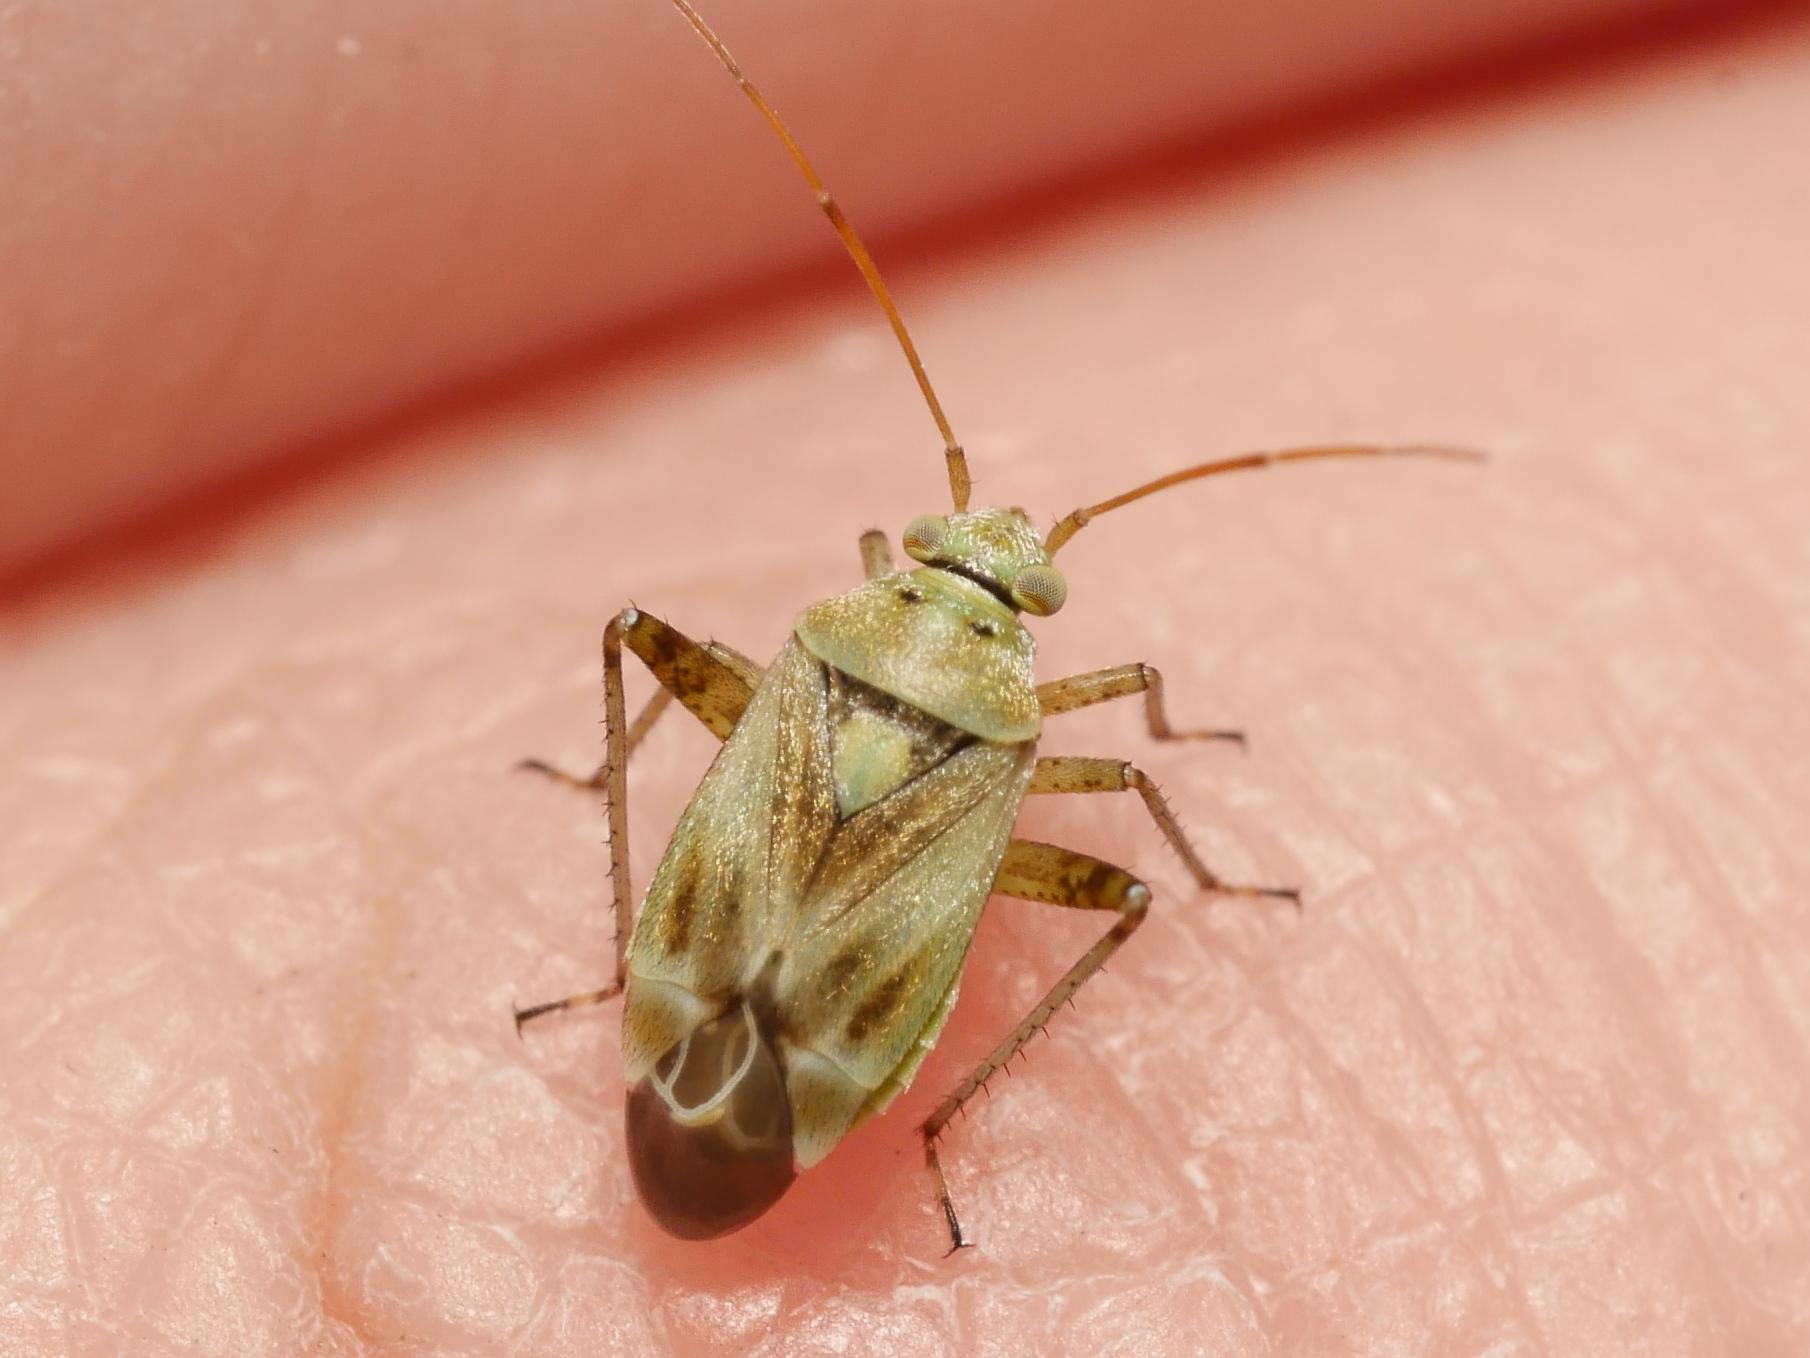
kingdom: Animalia
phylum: Arthropoda
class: Insecta
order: Hemiptera
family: Miridae
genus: Polymerus
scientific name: Polymerus vulneratus
